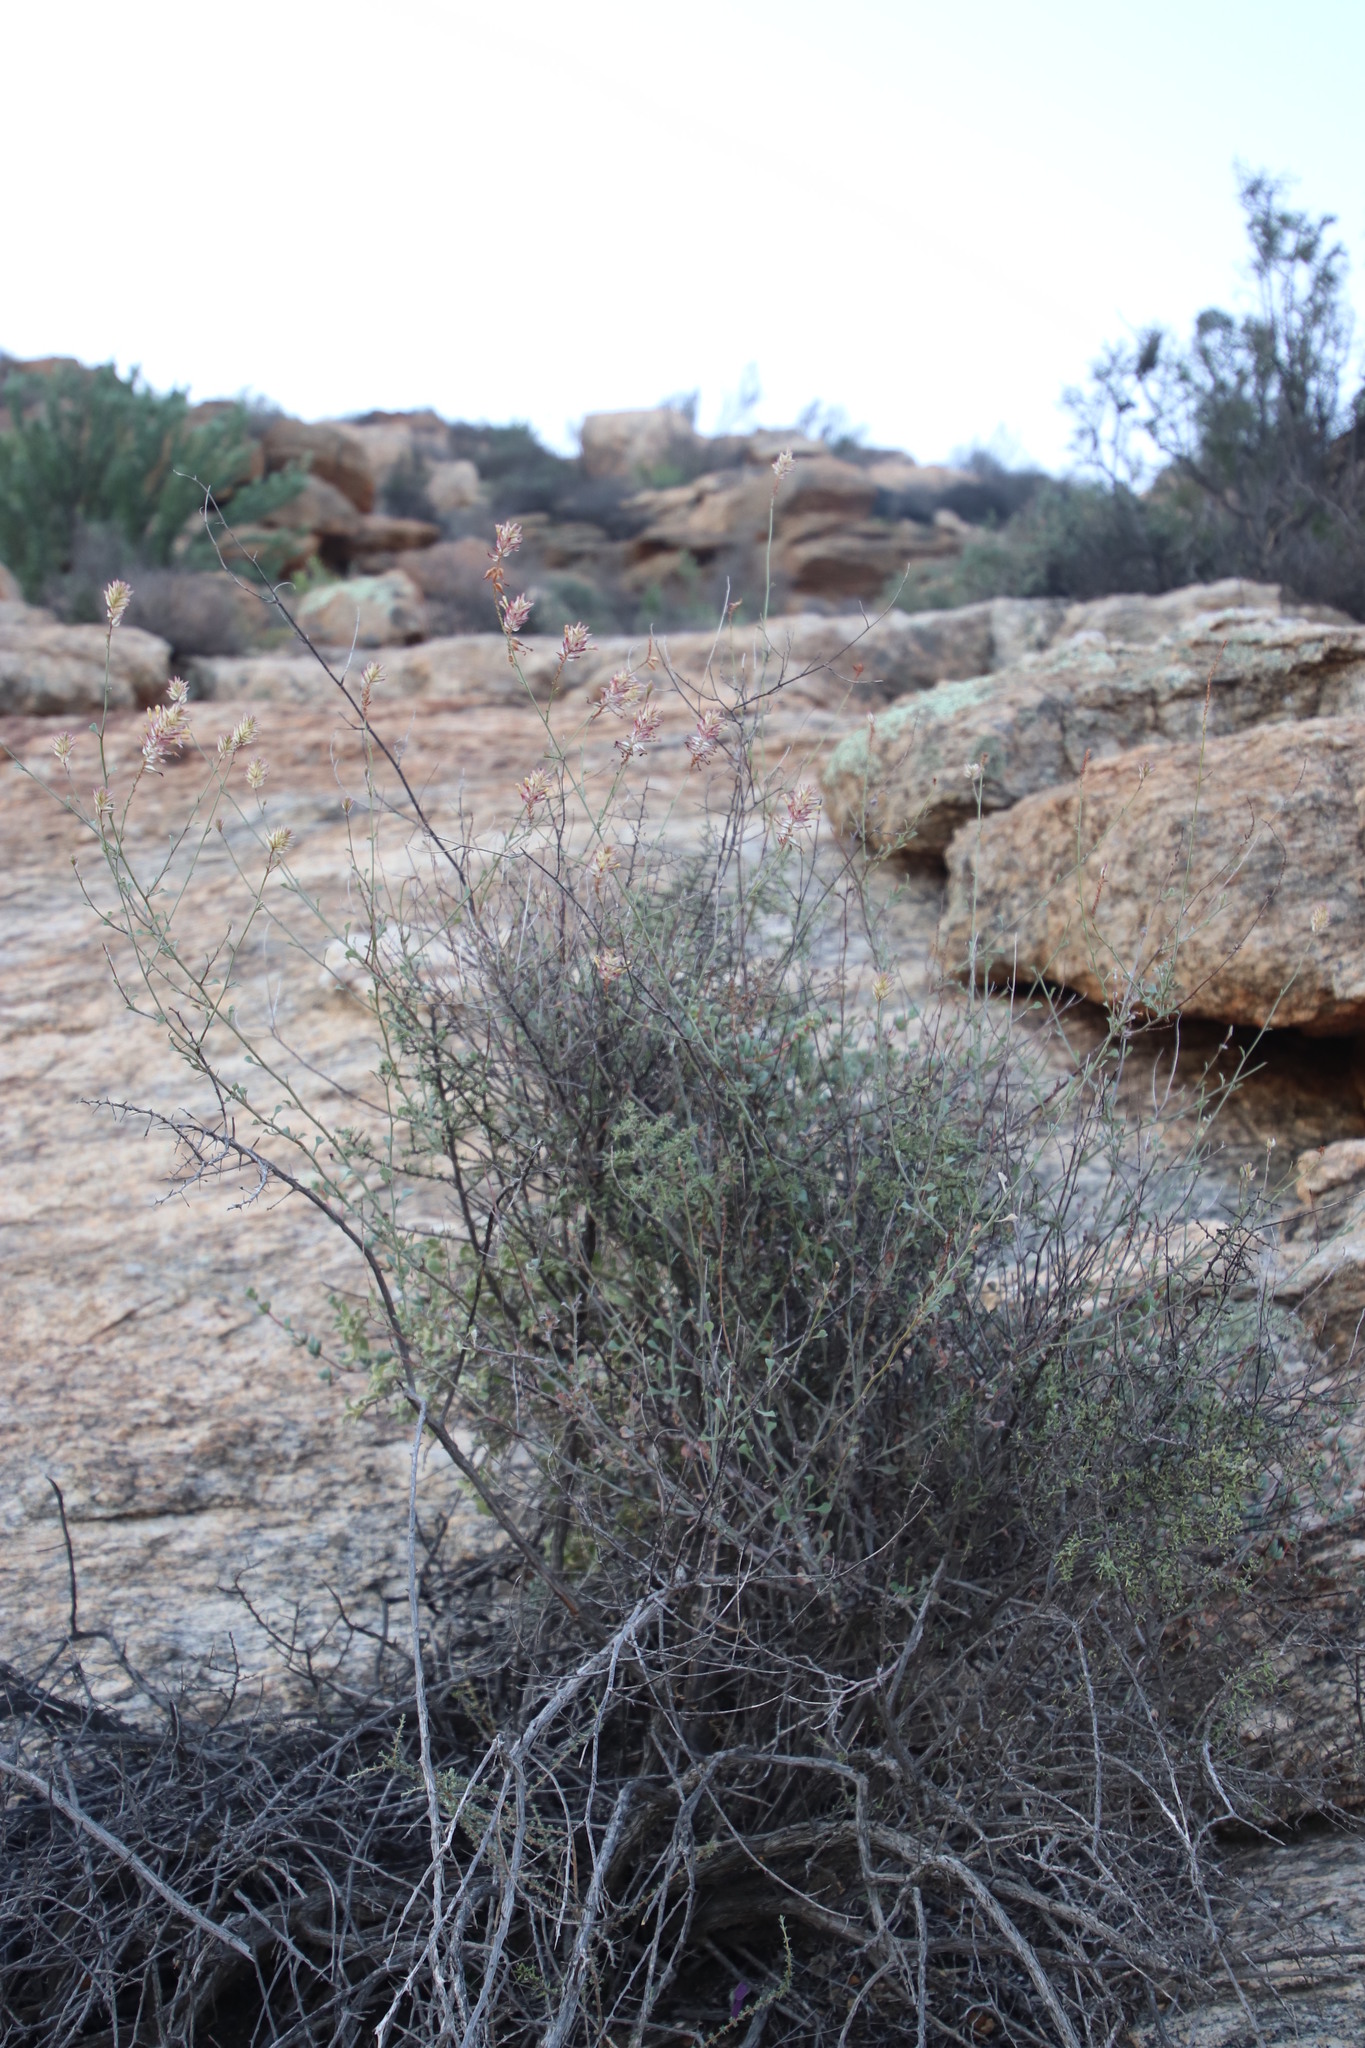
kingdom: Plantae
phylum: Tracheophyta
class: Magnoliopsida
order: Caryophyllales
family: Plumbaginaceae
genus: Dyerophytum
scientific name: Dyerophytum africanum
